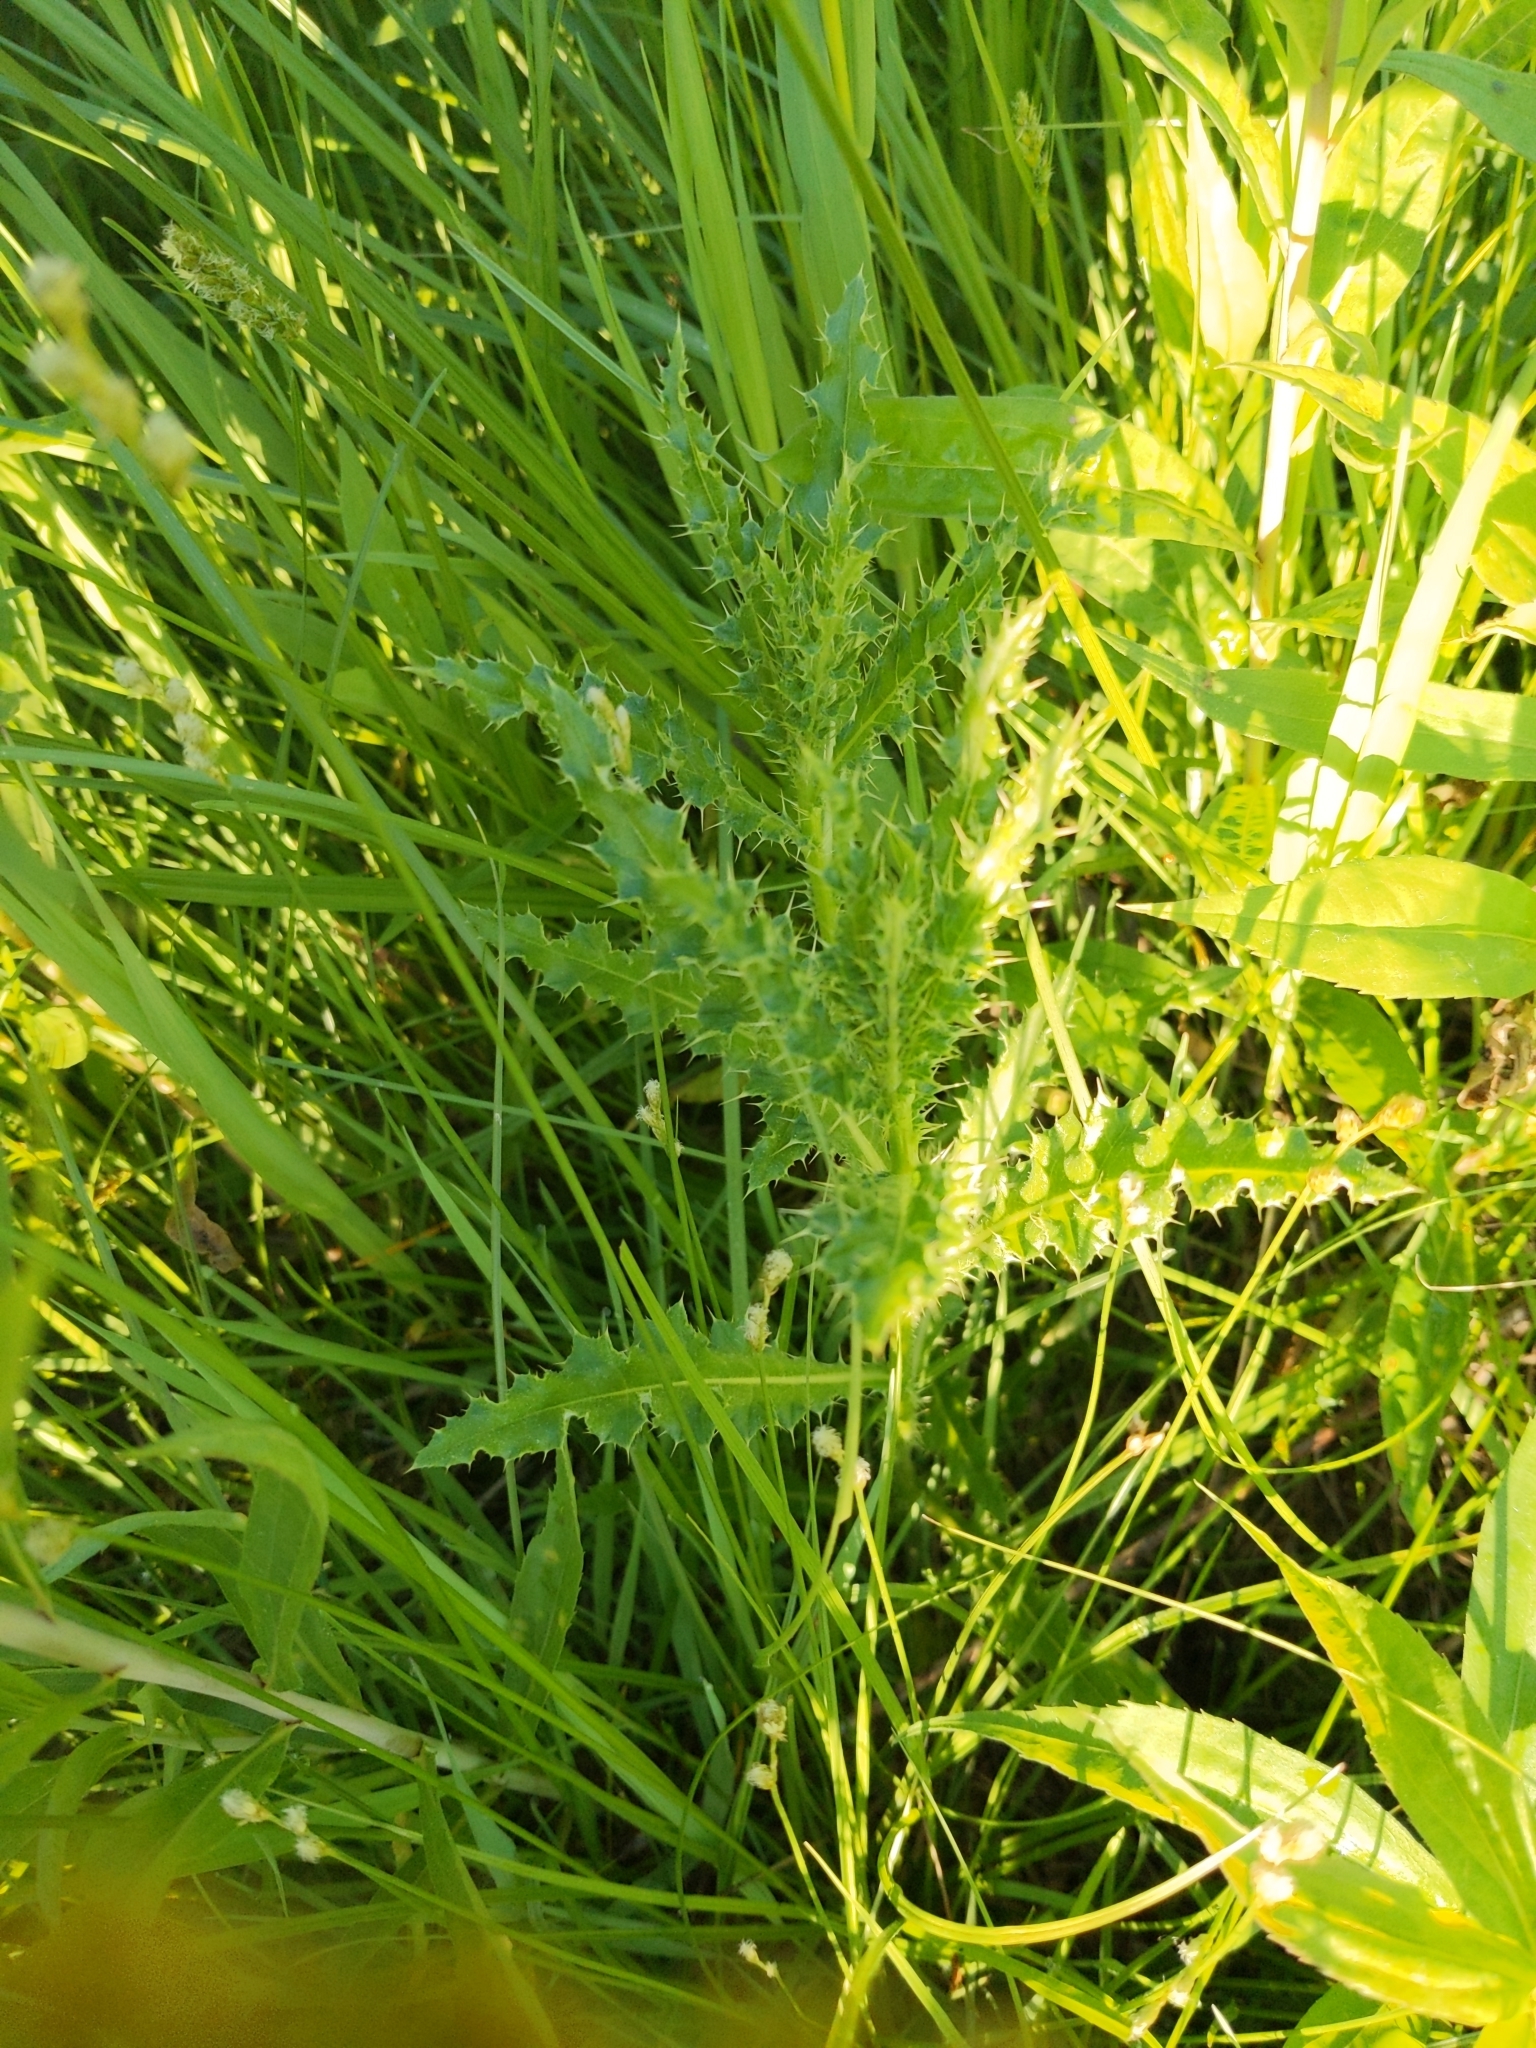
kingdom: Plantae
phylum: Tracheophyta
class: Magnoliopsida
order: Asterales
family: Asteraceae
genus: Cirsium
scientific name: Cirsium arvense
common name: Creeping thistle
